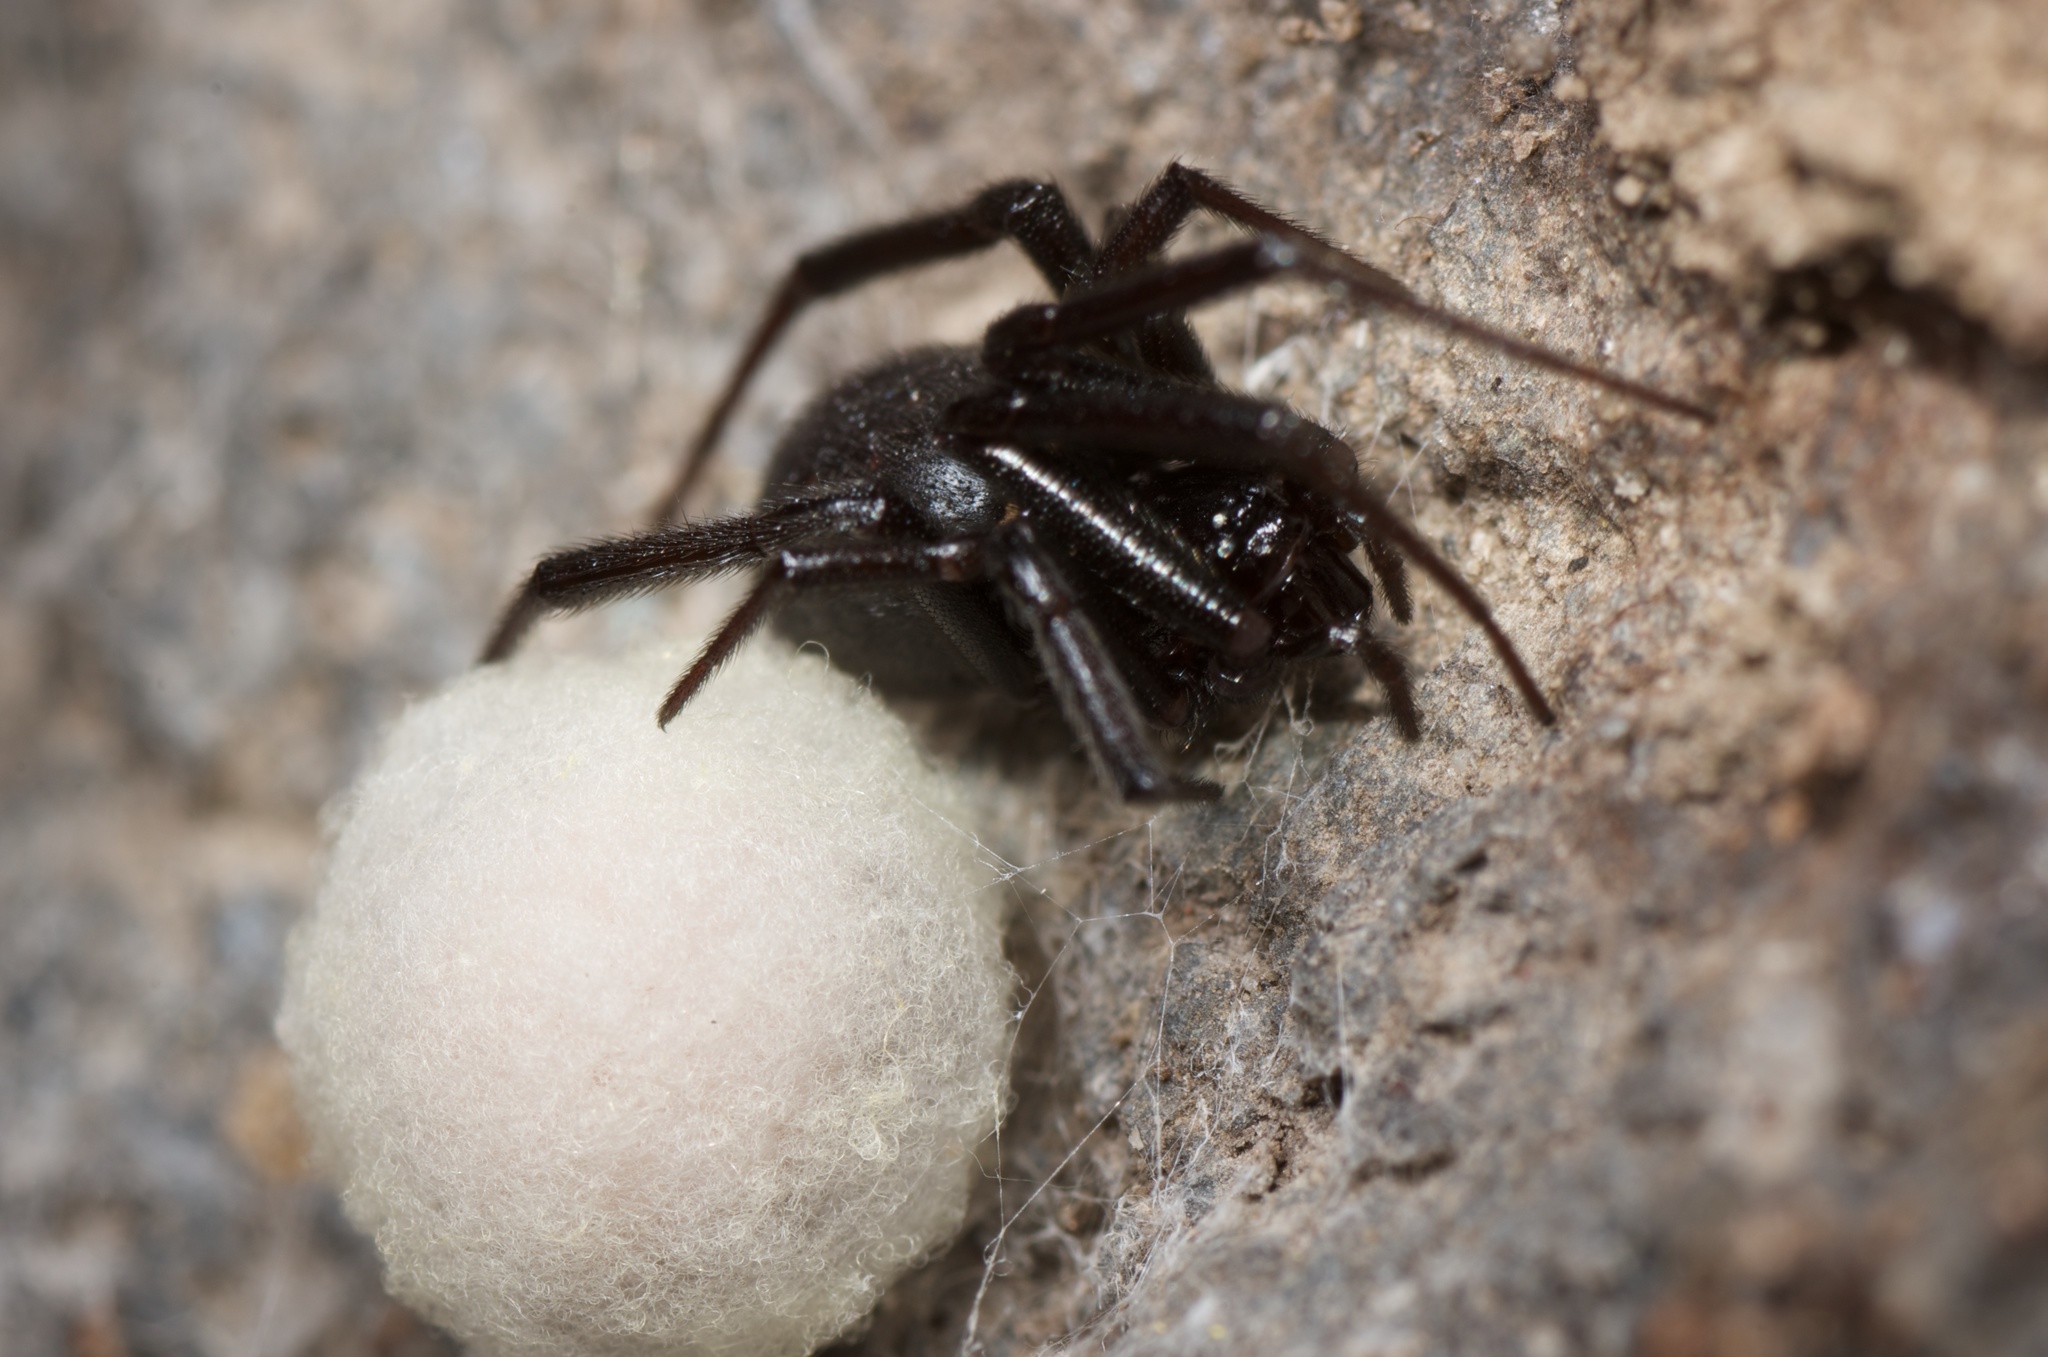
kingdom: Animalia
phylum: Arthropoda
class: Arachnida
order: Araneae
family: Theridiidae
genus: Steatoda
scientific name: Steatoda capensis
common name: Cobweb weaver
